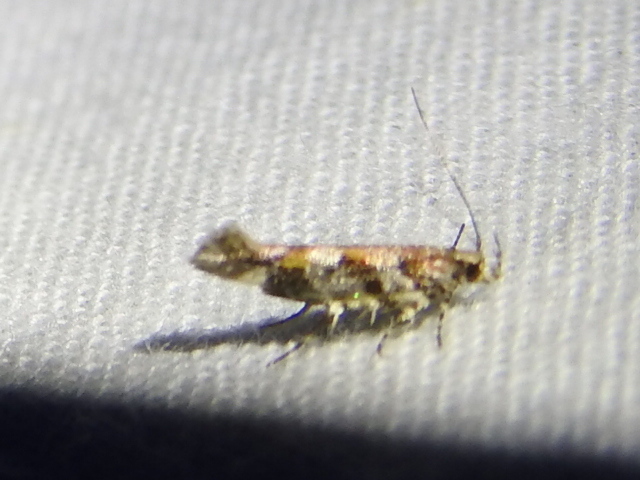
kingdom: Animalia
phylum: Arthropoda
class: Insecta
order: Lepidoptera
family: Gelechiidae
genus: Aristotelia
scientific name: Aristotelia roseosuffusella
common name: Pink-washed aristotelia moth
